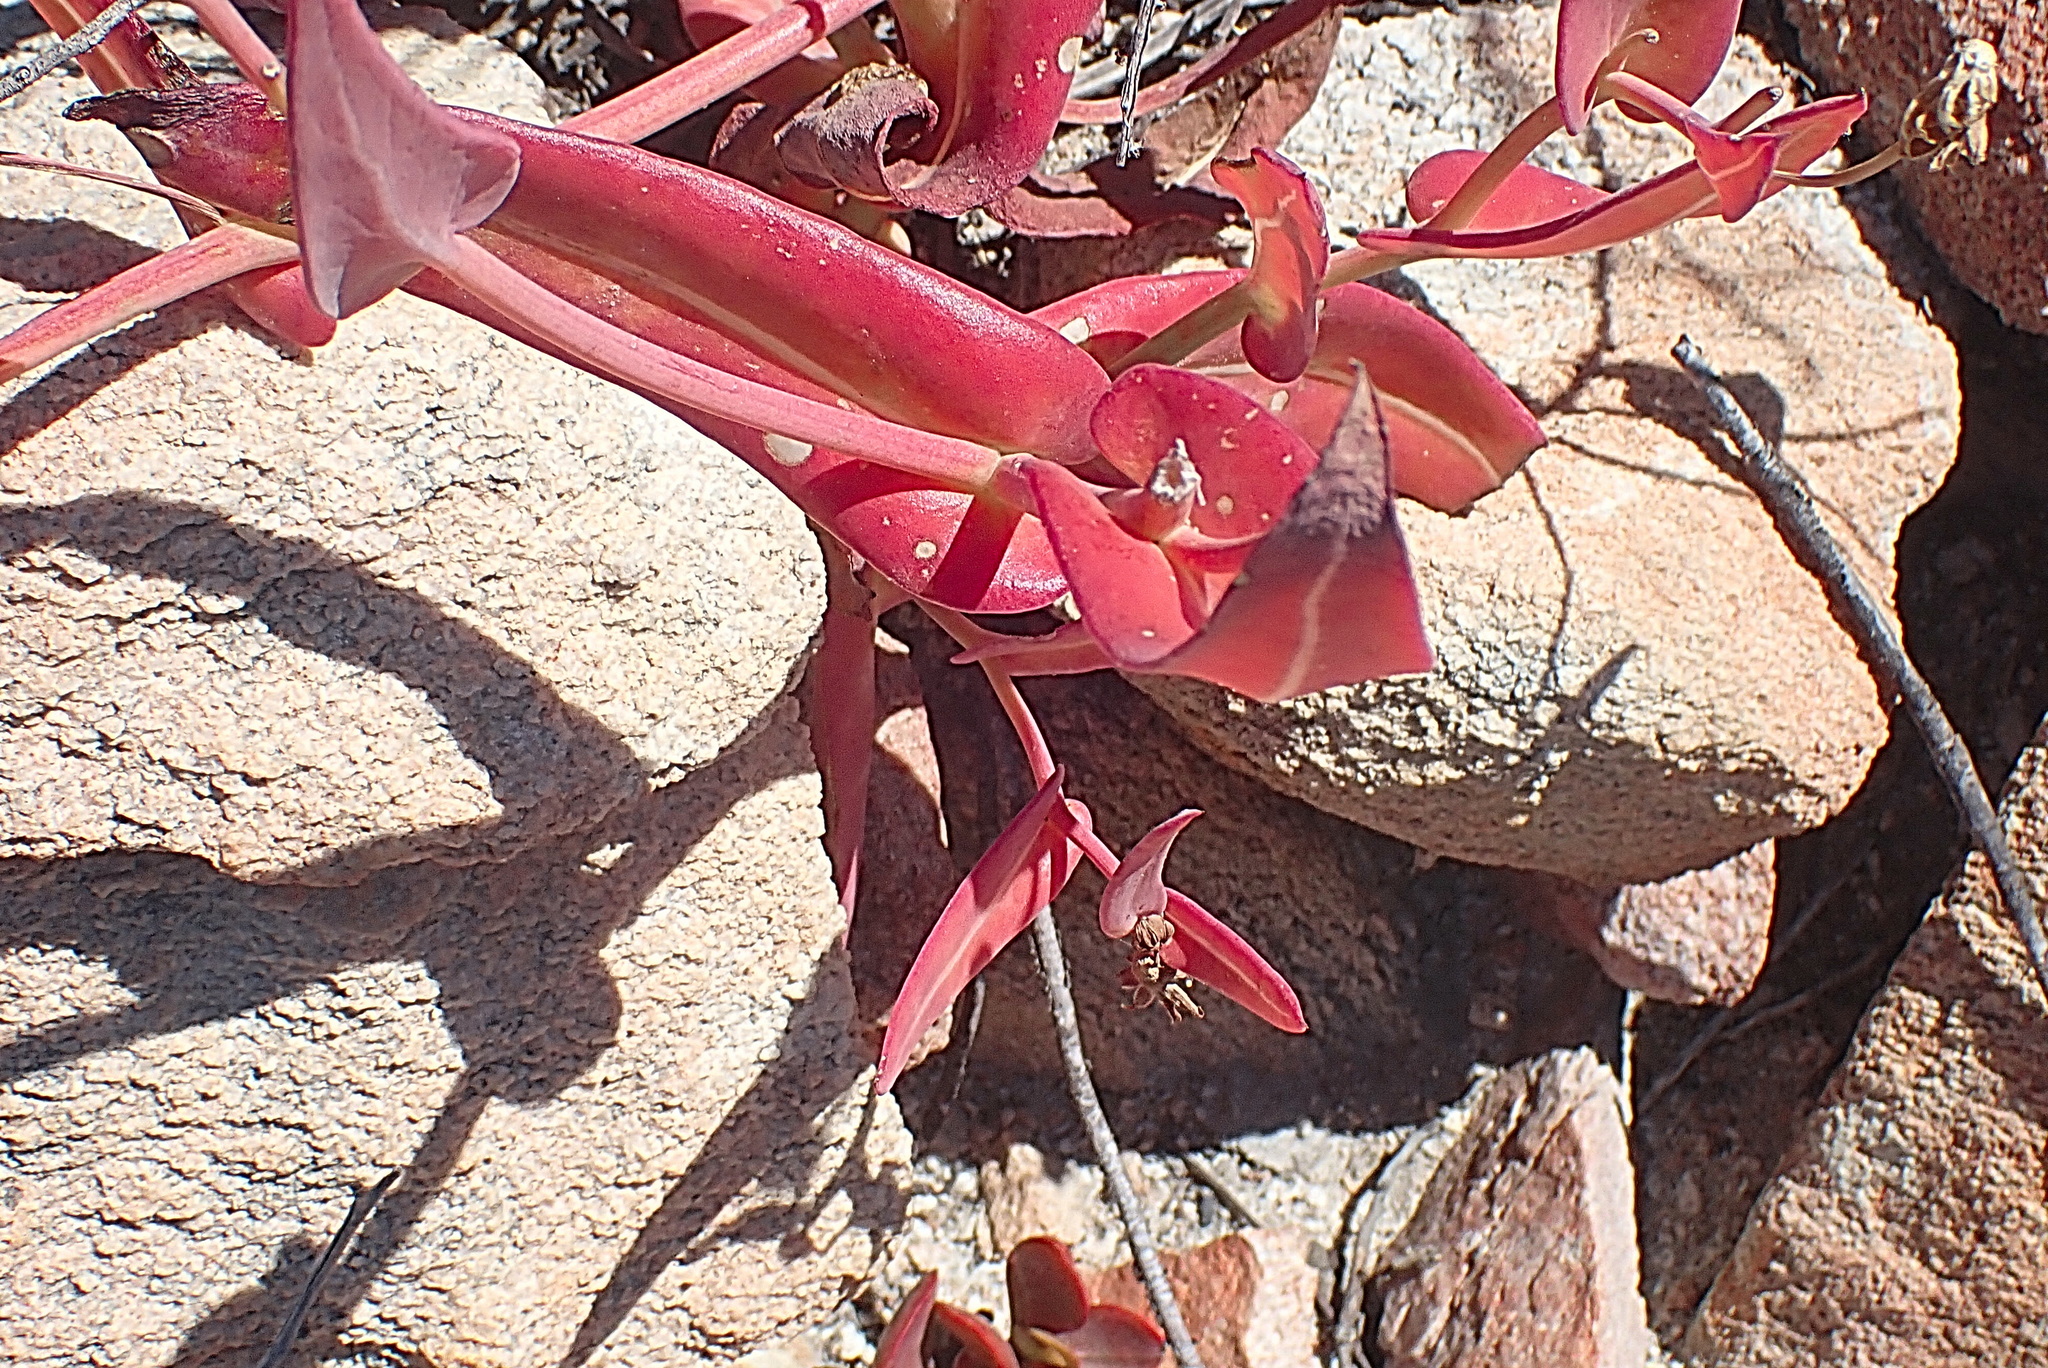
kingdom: Plantae
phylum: Tracheophyta
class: Magnoliopsida
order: Asterales
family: Asteraceae
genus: Othonna
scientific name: Othonna undulosa
